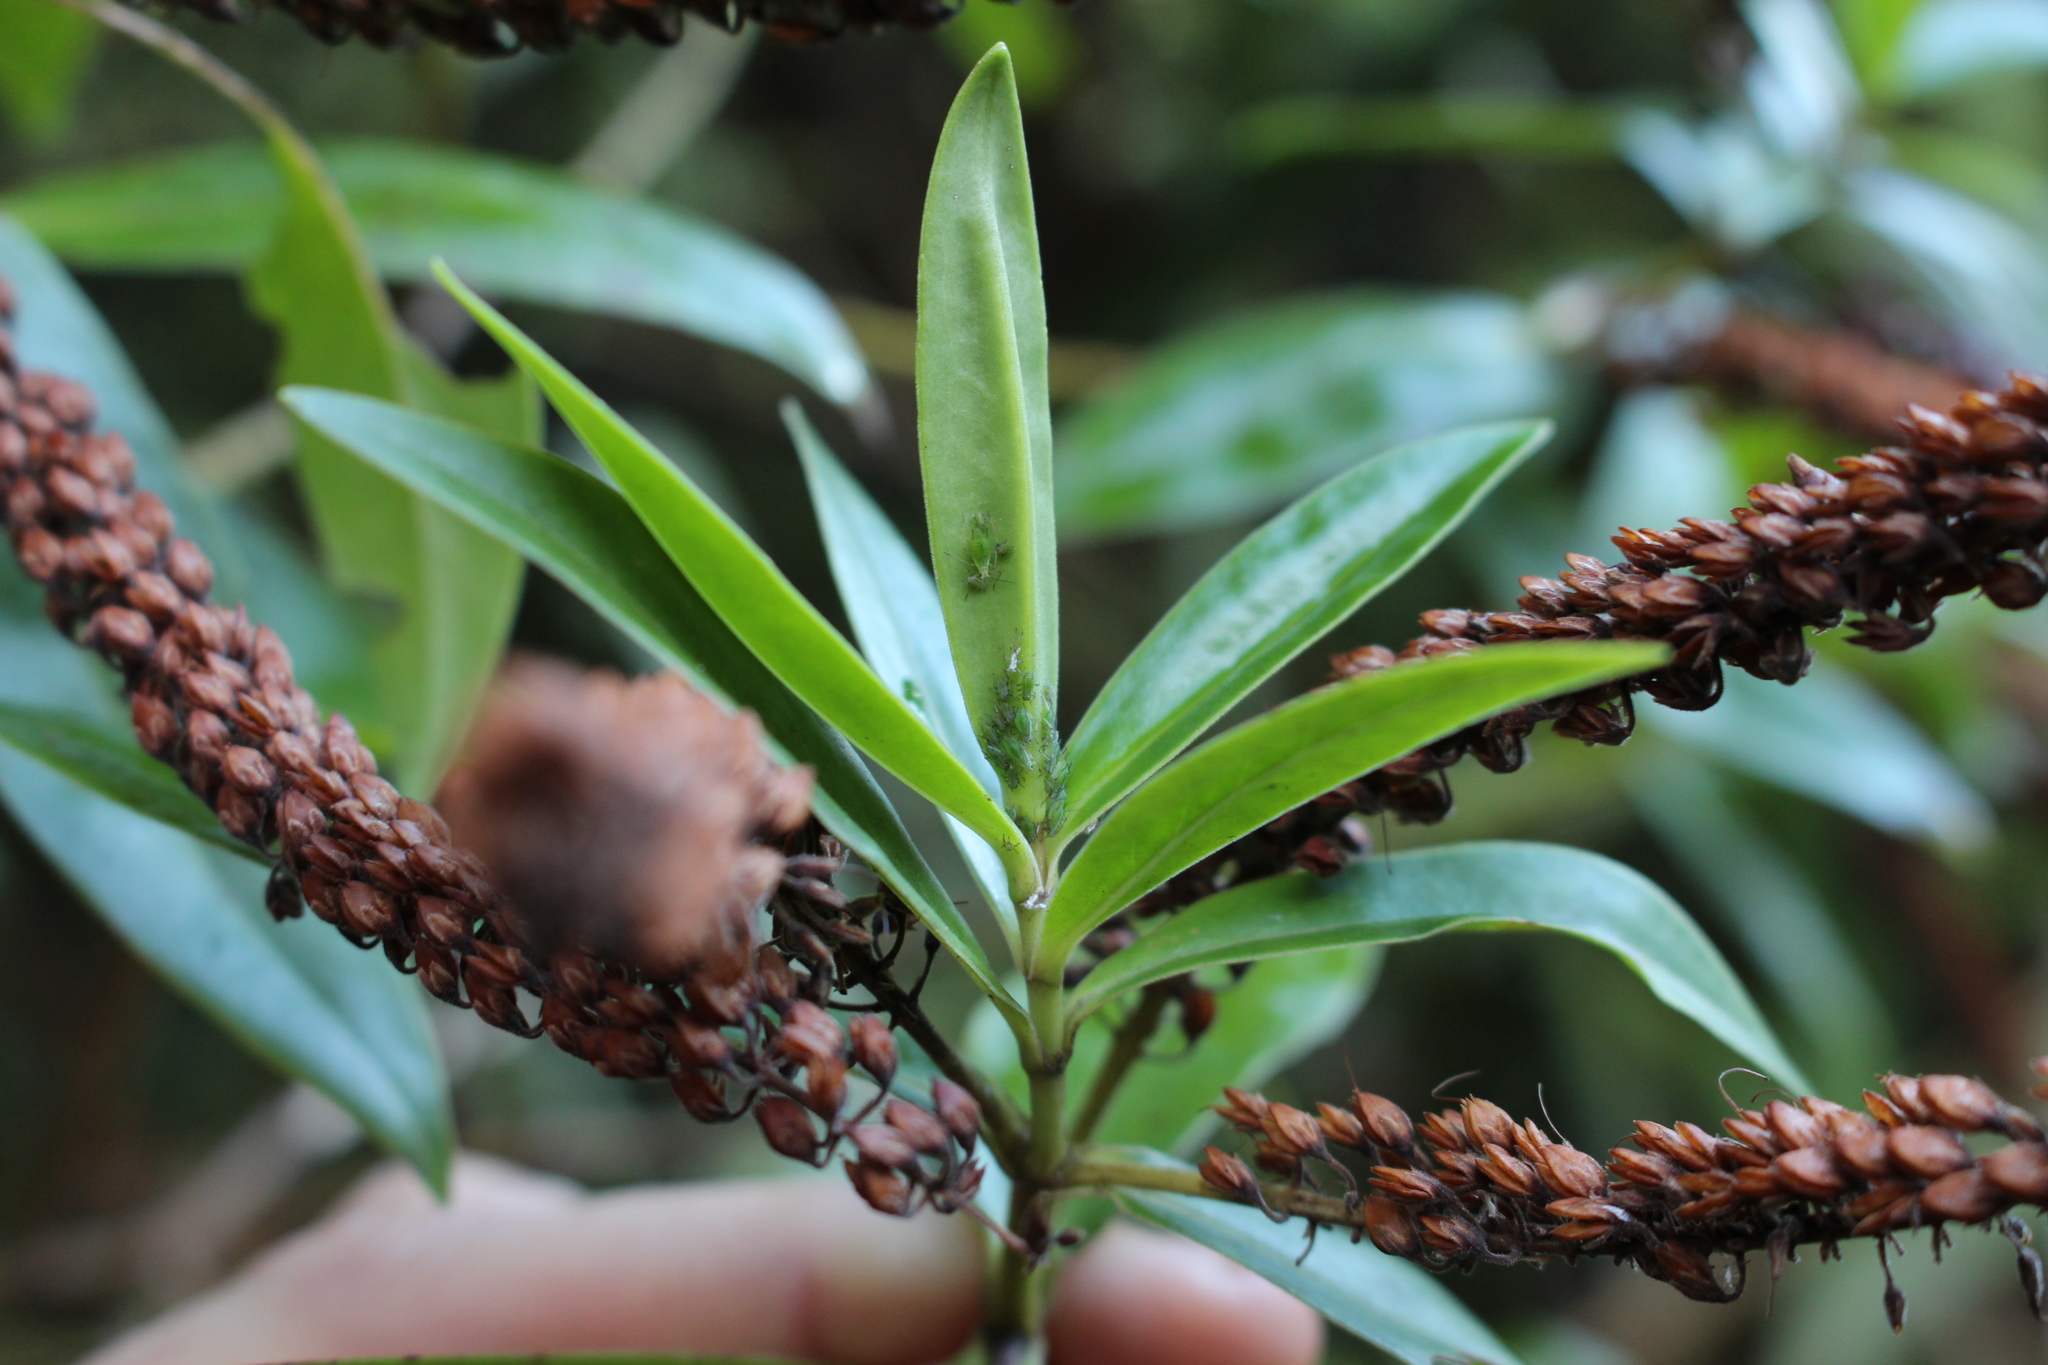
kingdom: Plantae
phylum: Tracheophyta
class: Magnoliopsida
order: Lamiales
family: Plantaginaceae
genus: Veronica
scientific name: Veronica salicifolia
